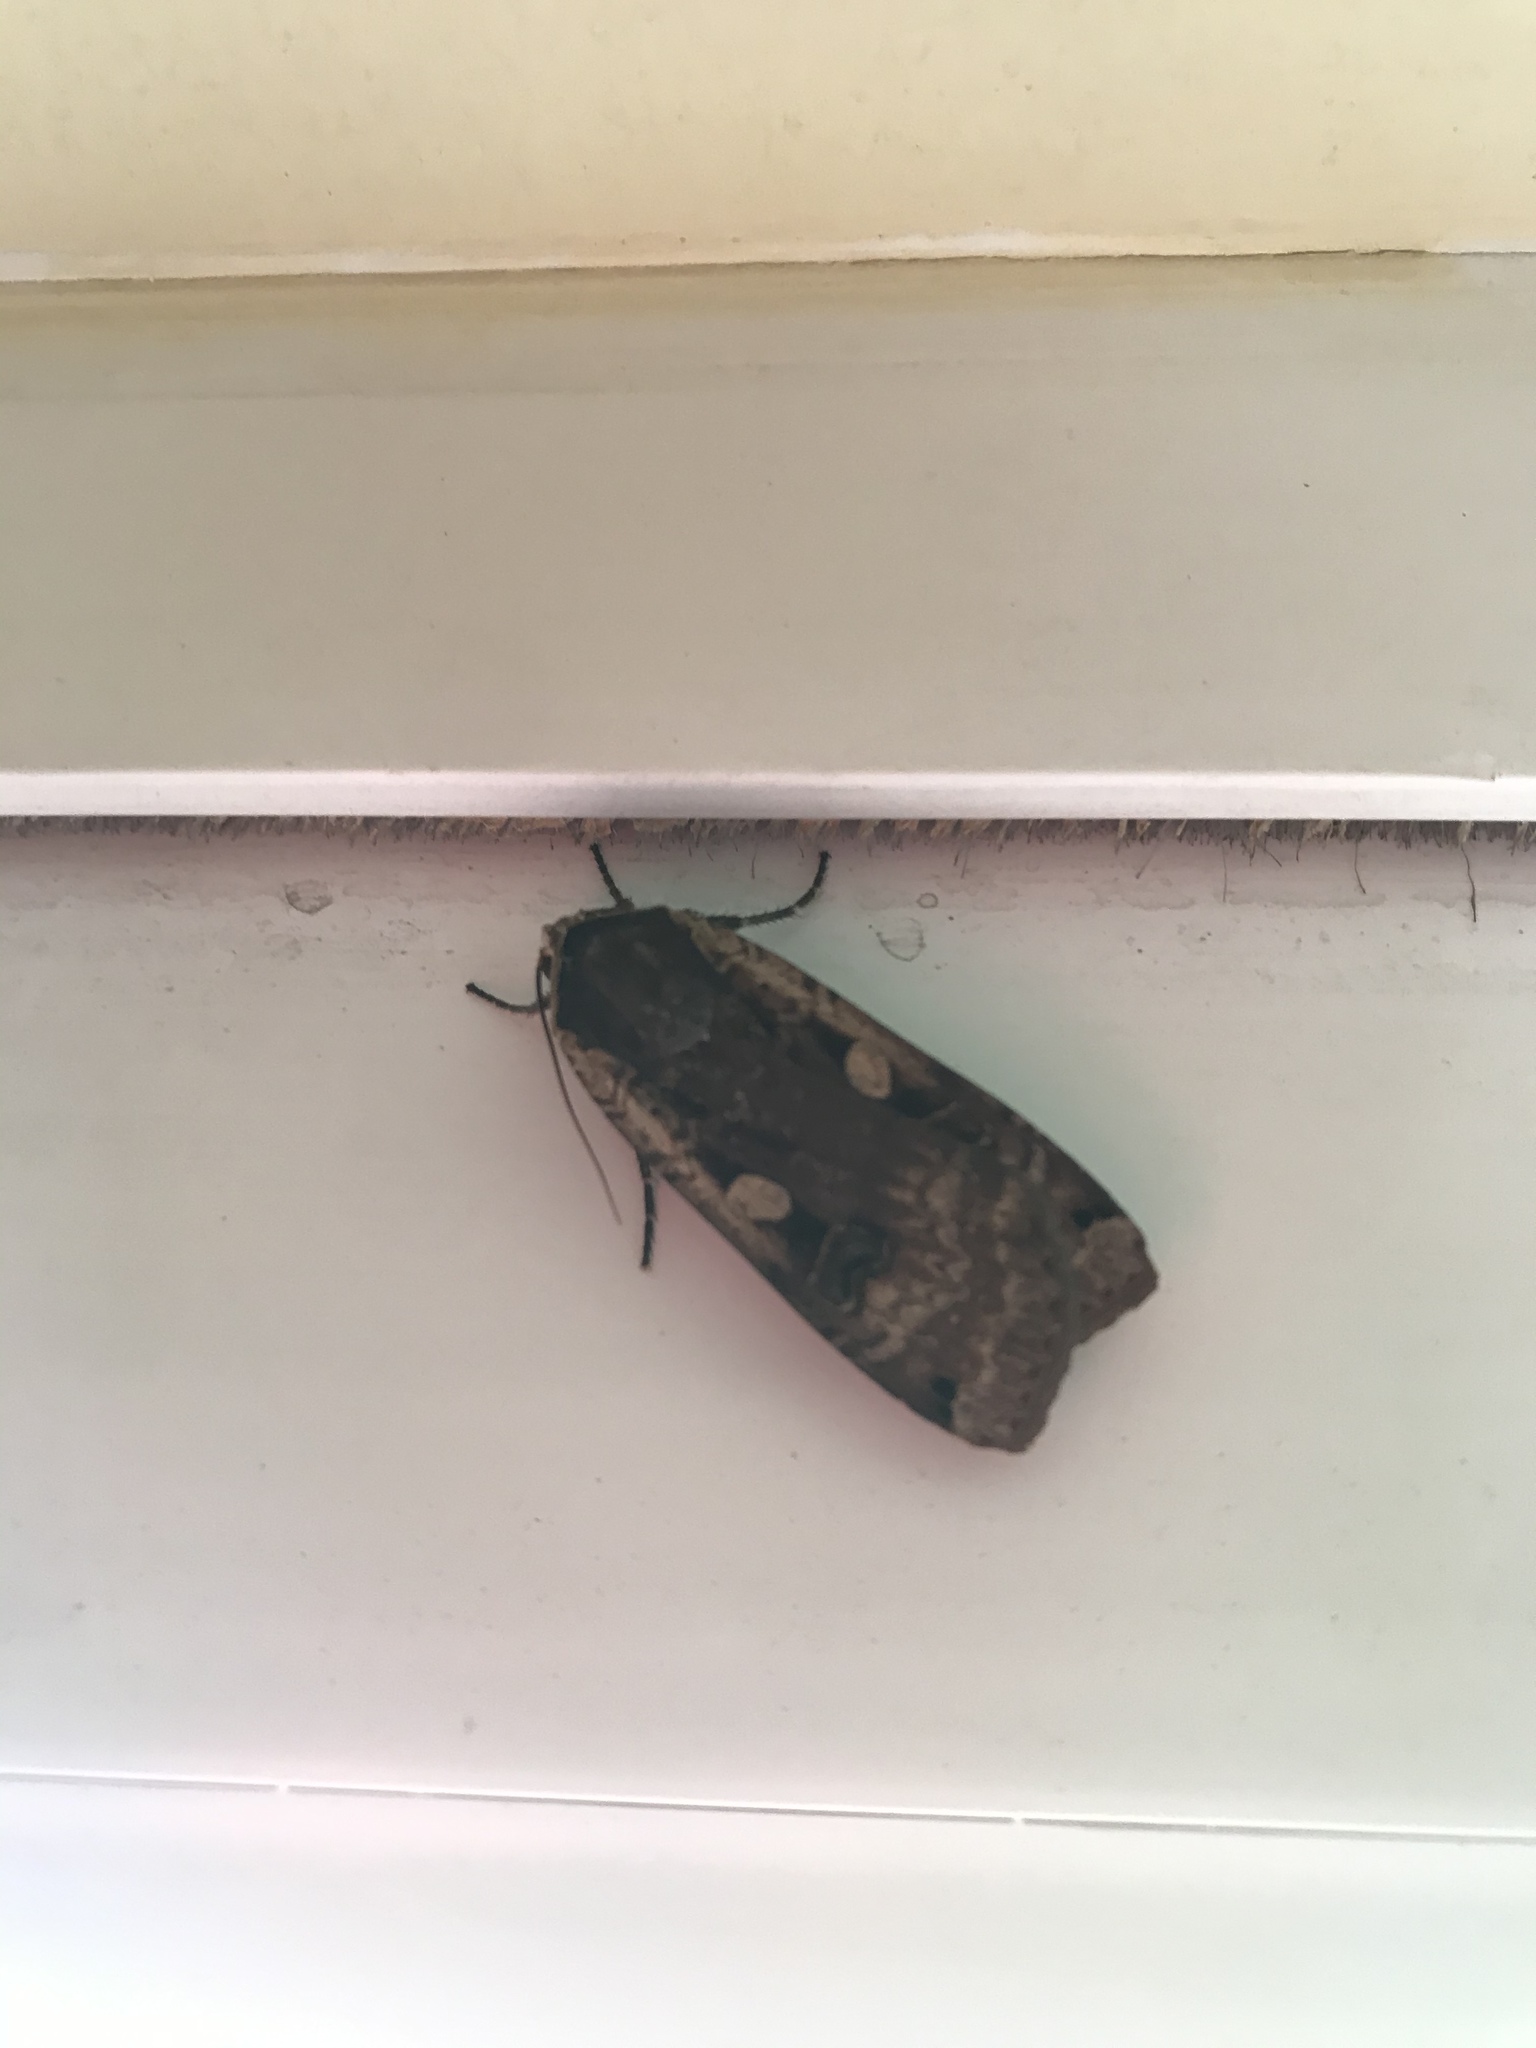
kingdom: Animalia
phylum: Arthropoda
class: Insecta
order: Lepidoptera
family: Noctuidae
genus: Noctua
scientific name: Noctua pronuba
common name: Large yellow underwing
